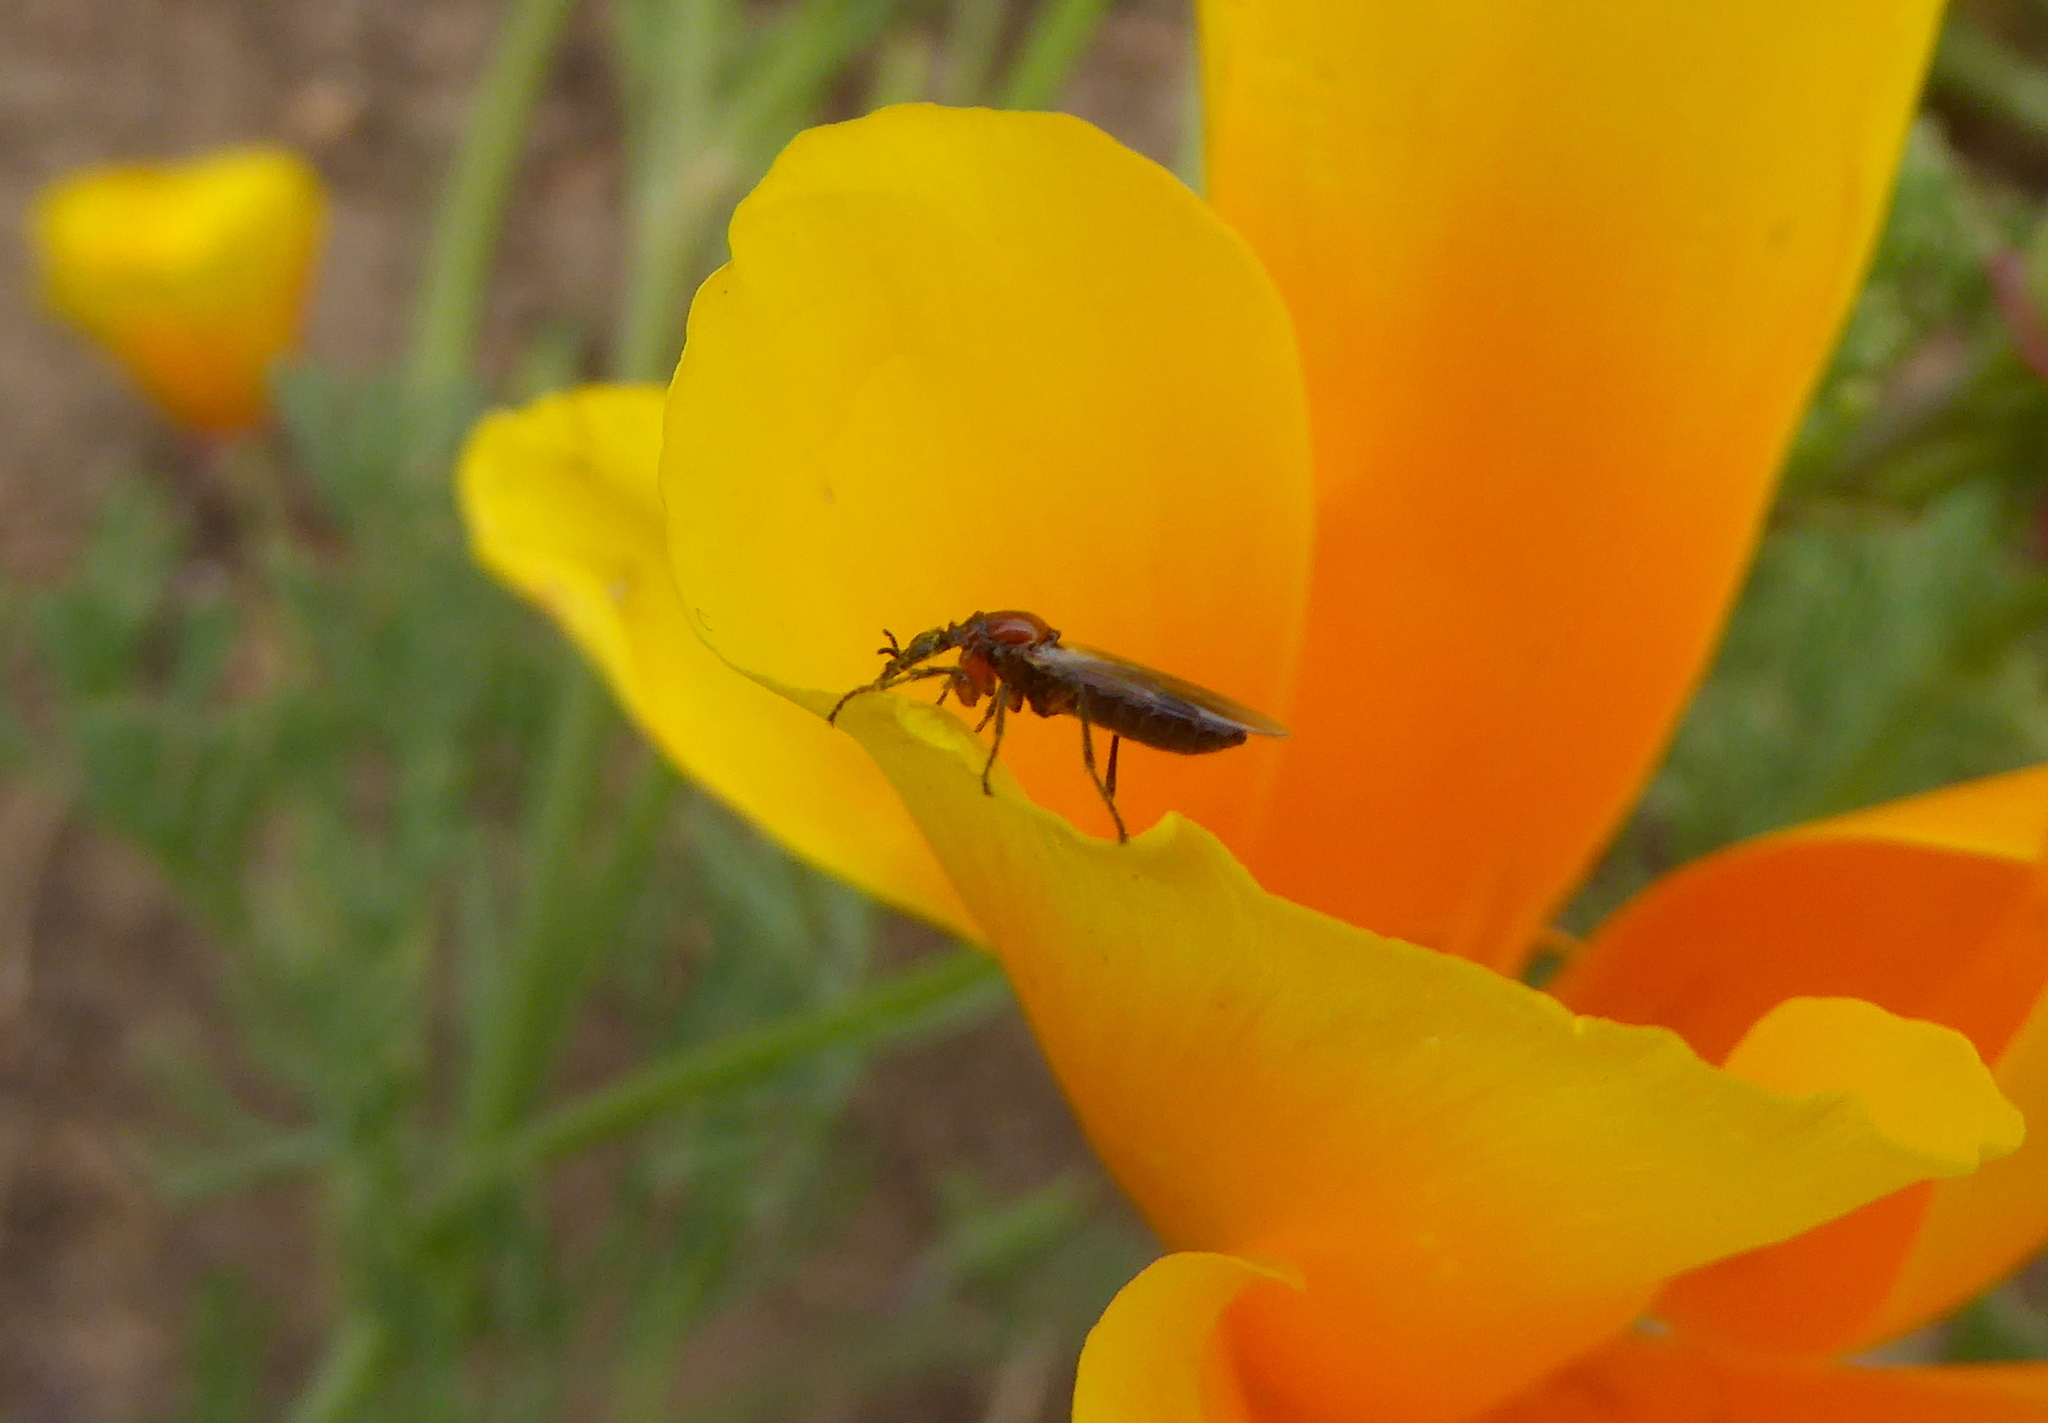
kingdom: Animalia
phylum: Arthropoda
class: Insecta
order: Diptera
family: Bibionidae
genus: Dilophus
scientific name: Dilophus occipitalis
